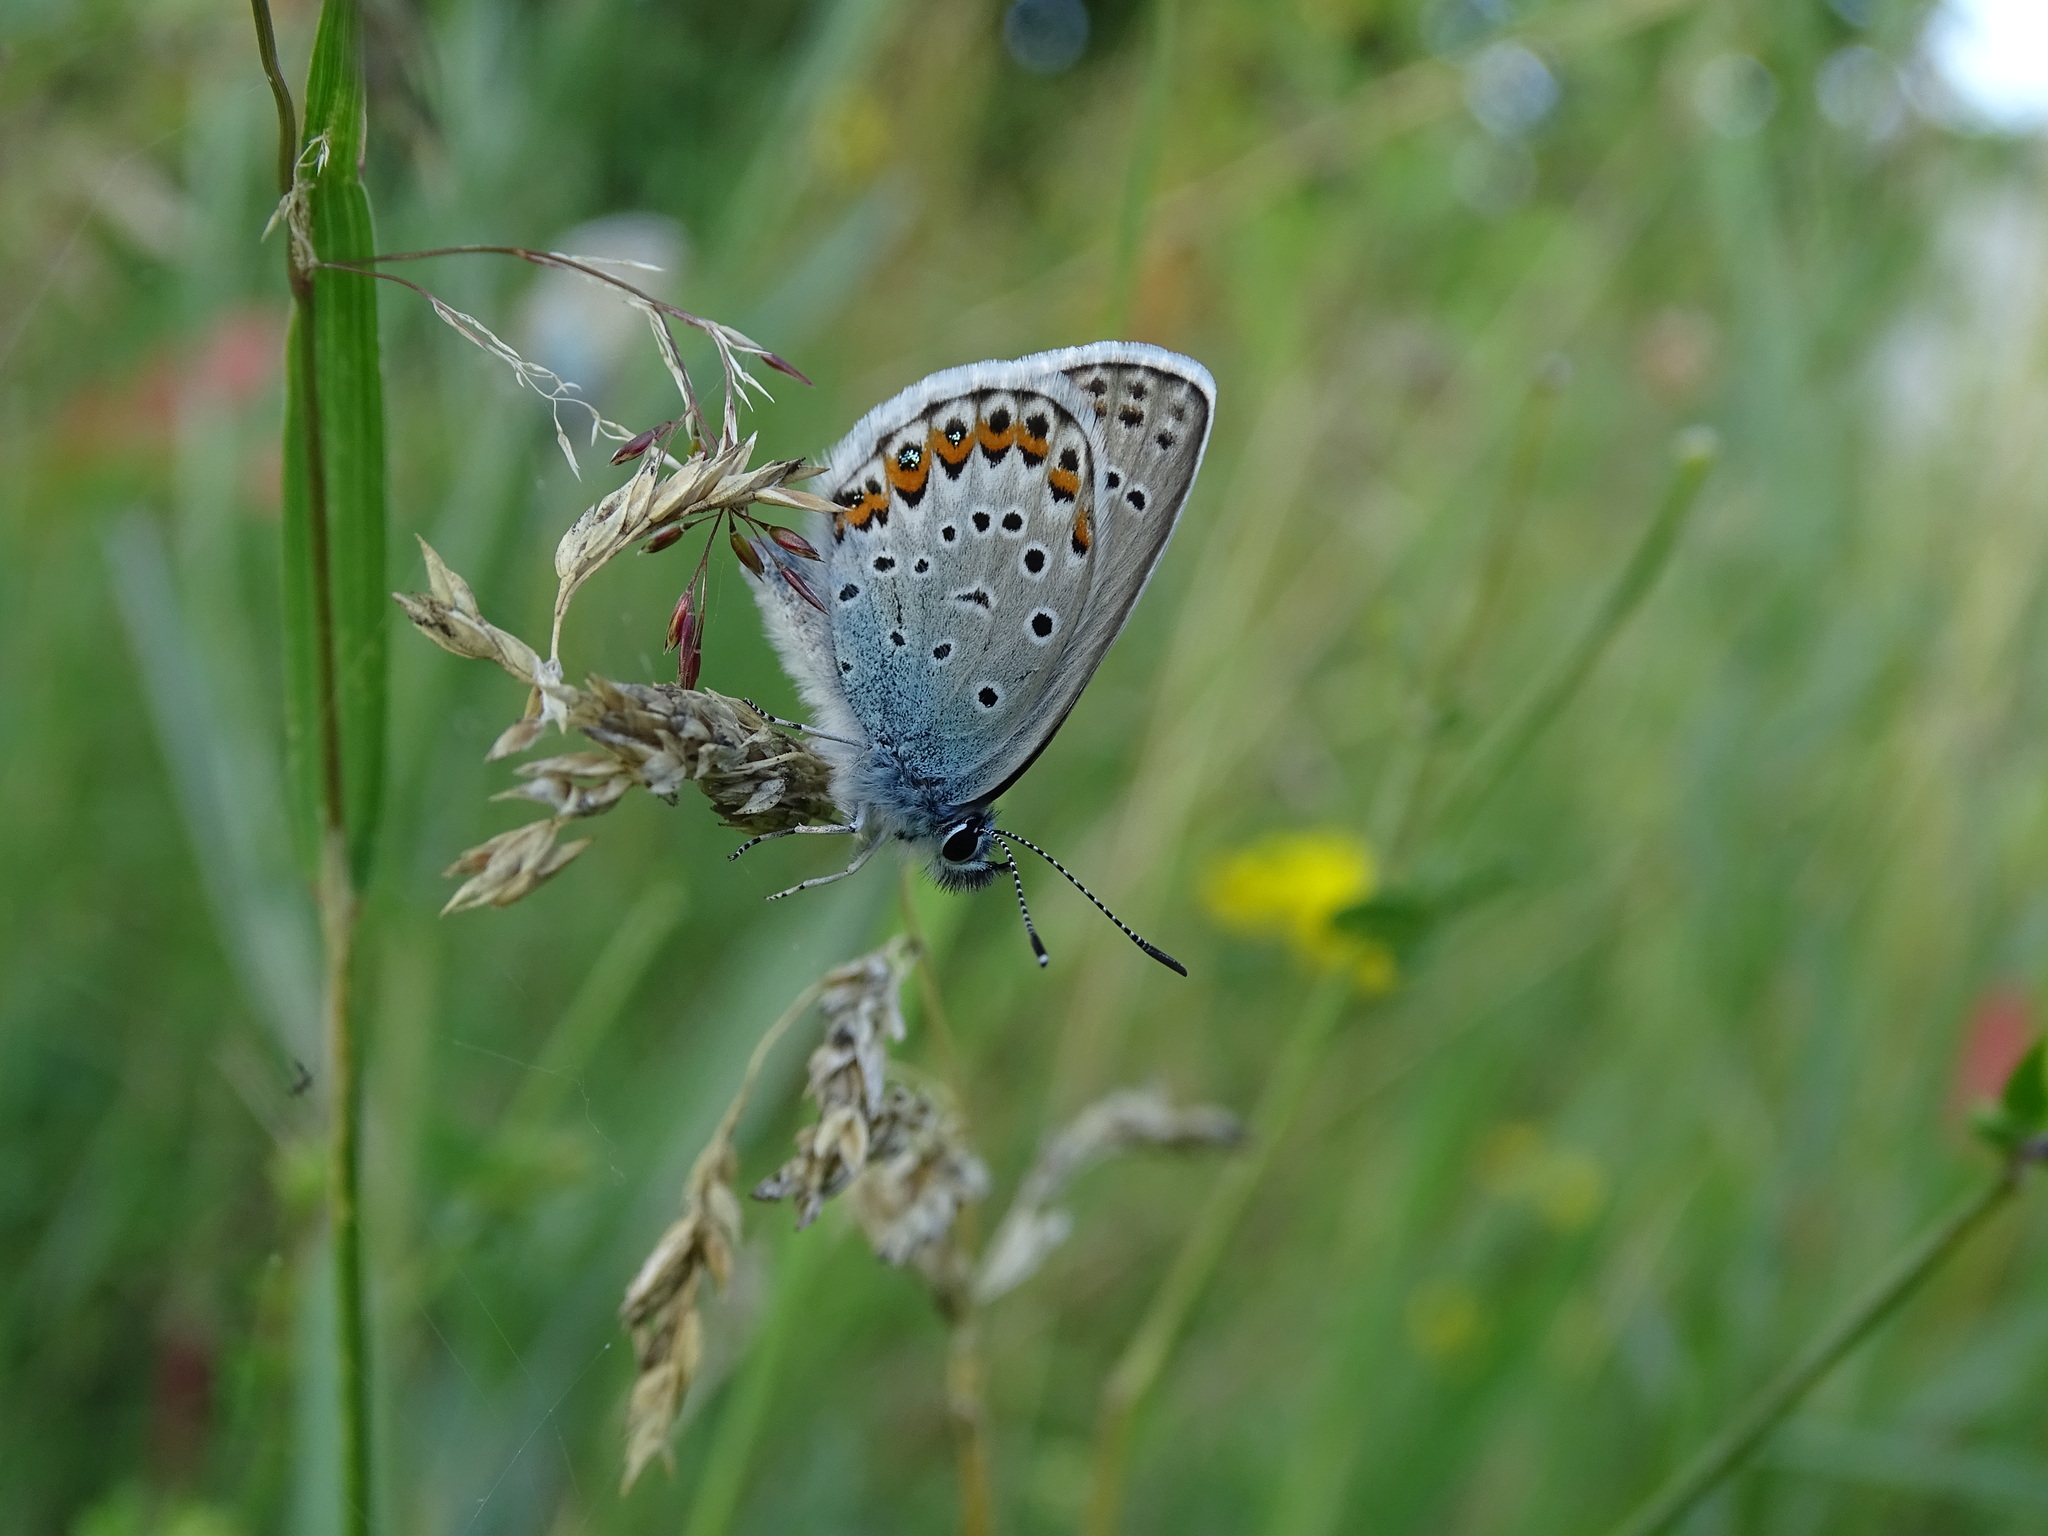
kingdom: Animalia
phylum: Arthropoda
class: Insecta
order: Lepidoptera
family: Lycaenidae
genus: Lycaeides
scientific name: Lycaeides idas
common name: Northern blue
